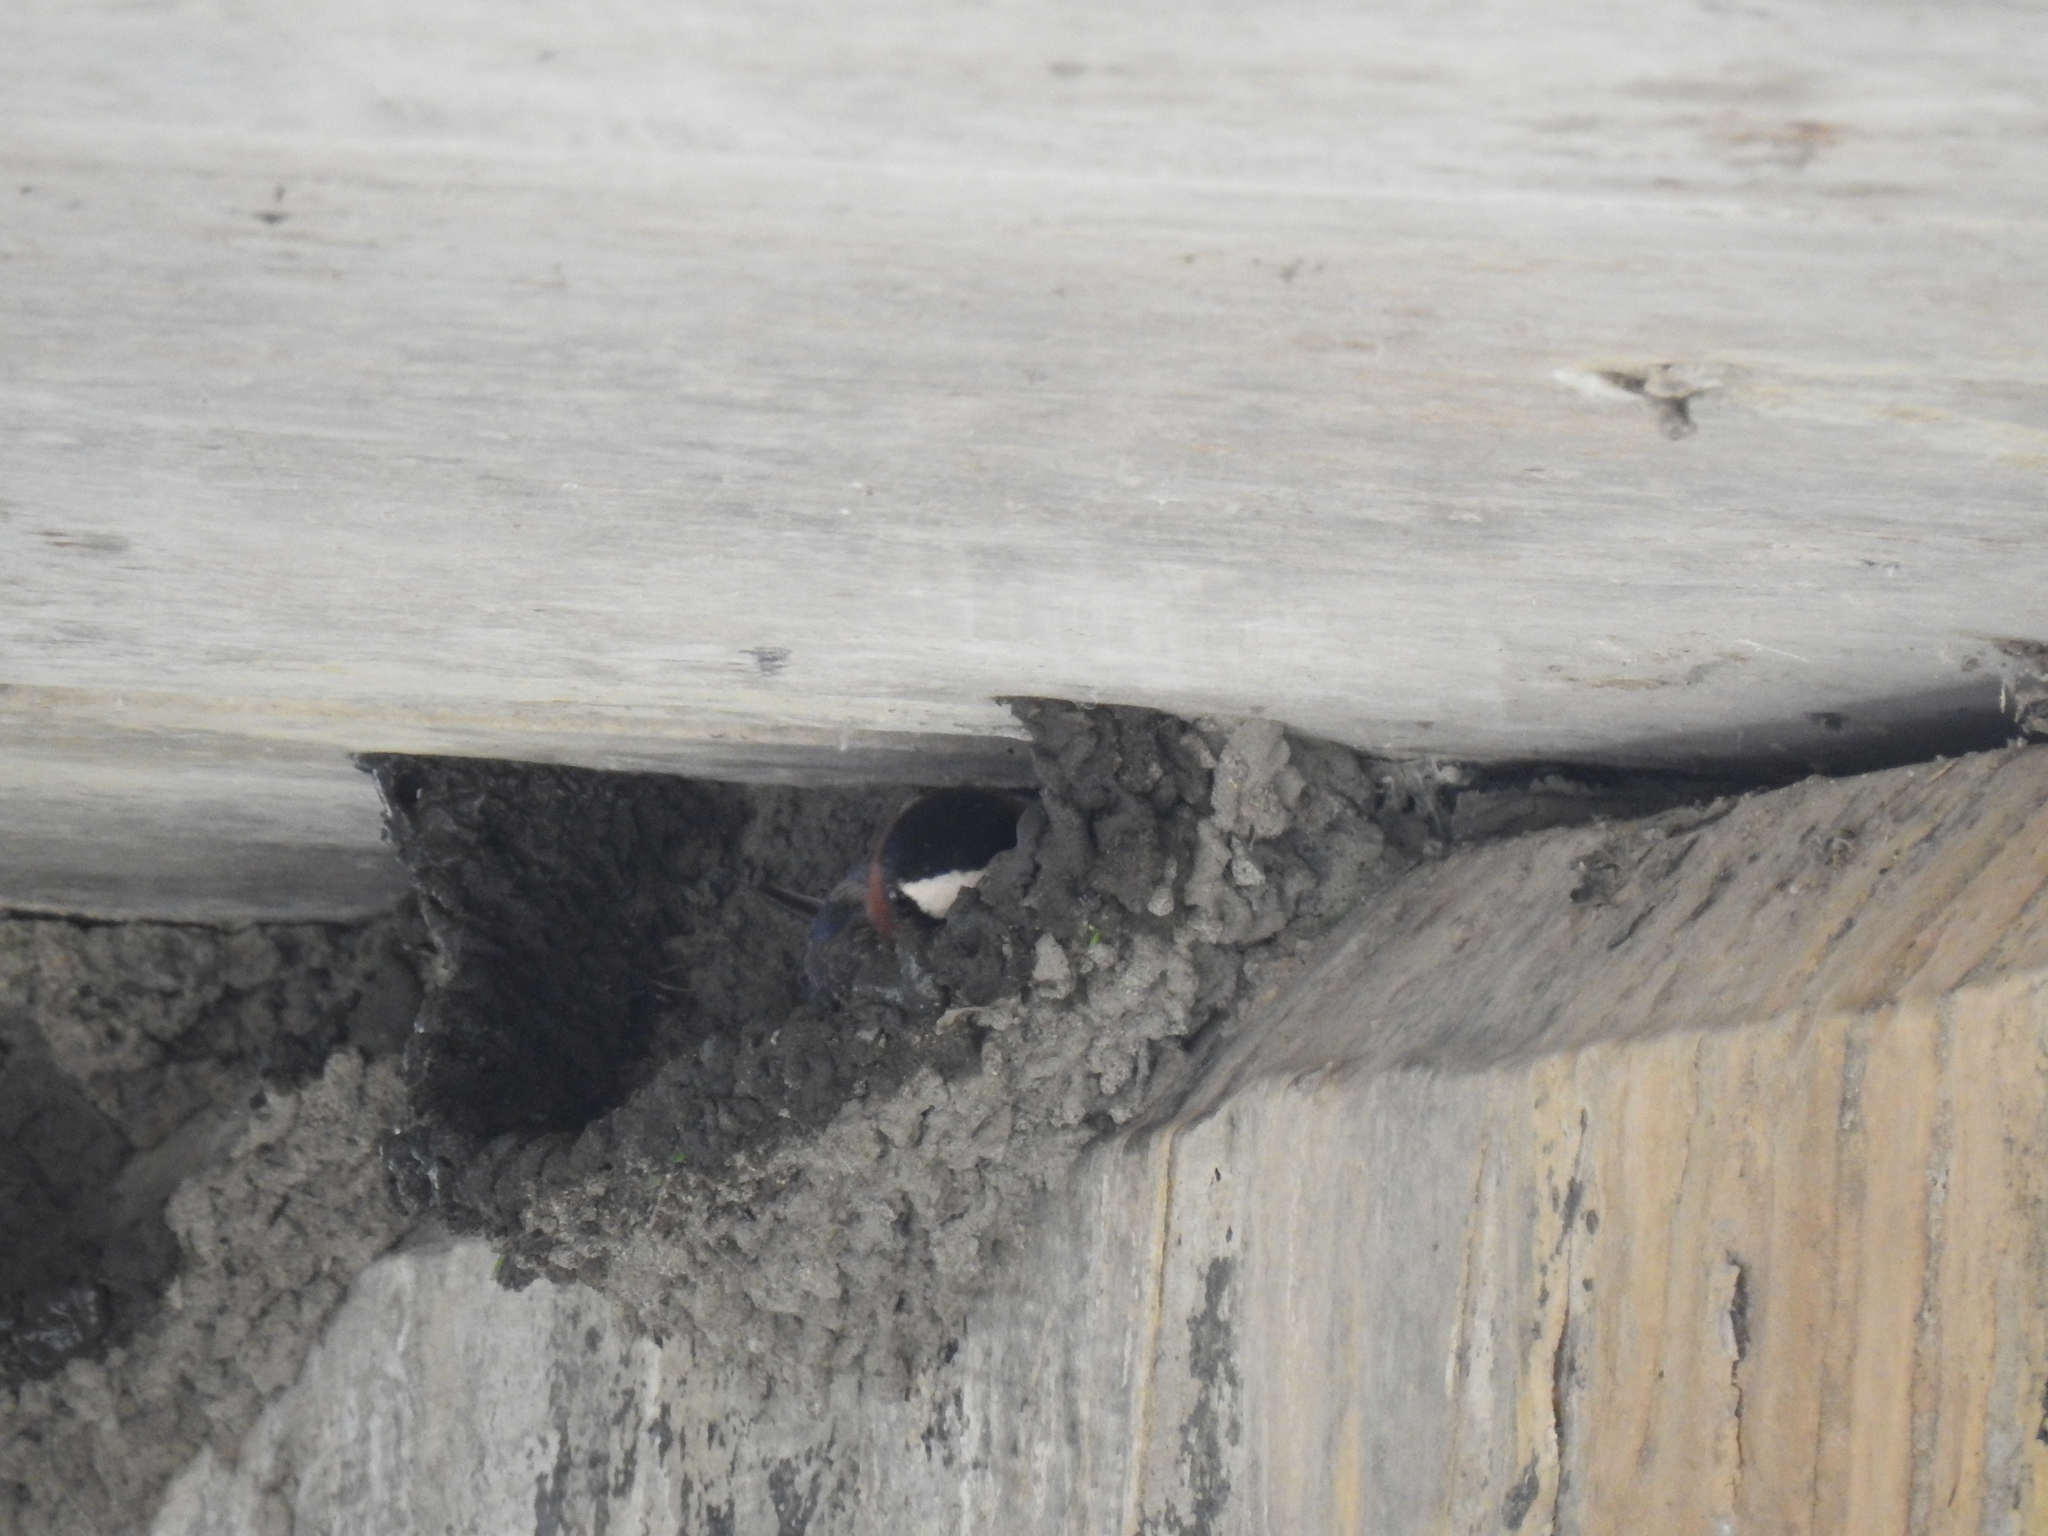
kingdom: Animalia
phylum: Chordata
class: Aves
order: Passeriformes
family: Hirundinidae
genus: Petrochelidon
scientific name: Petrochelidon pyrrhonota
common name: American cliff swallow
